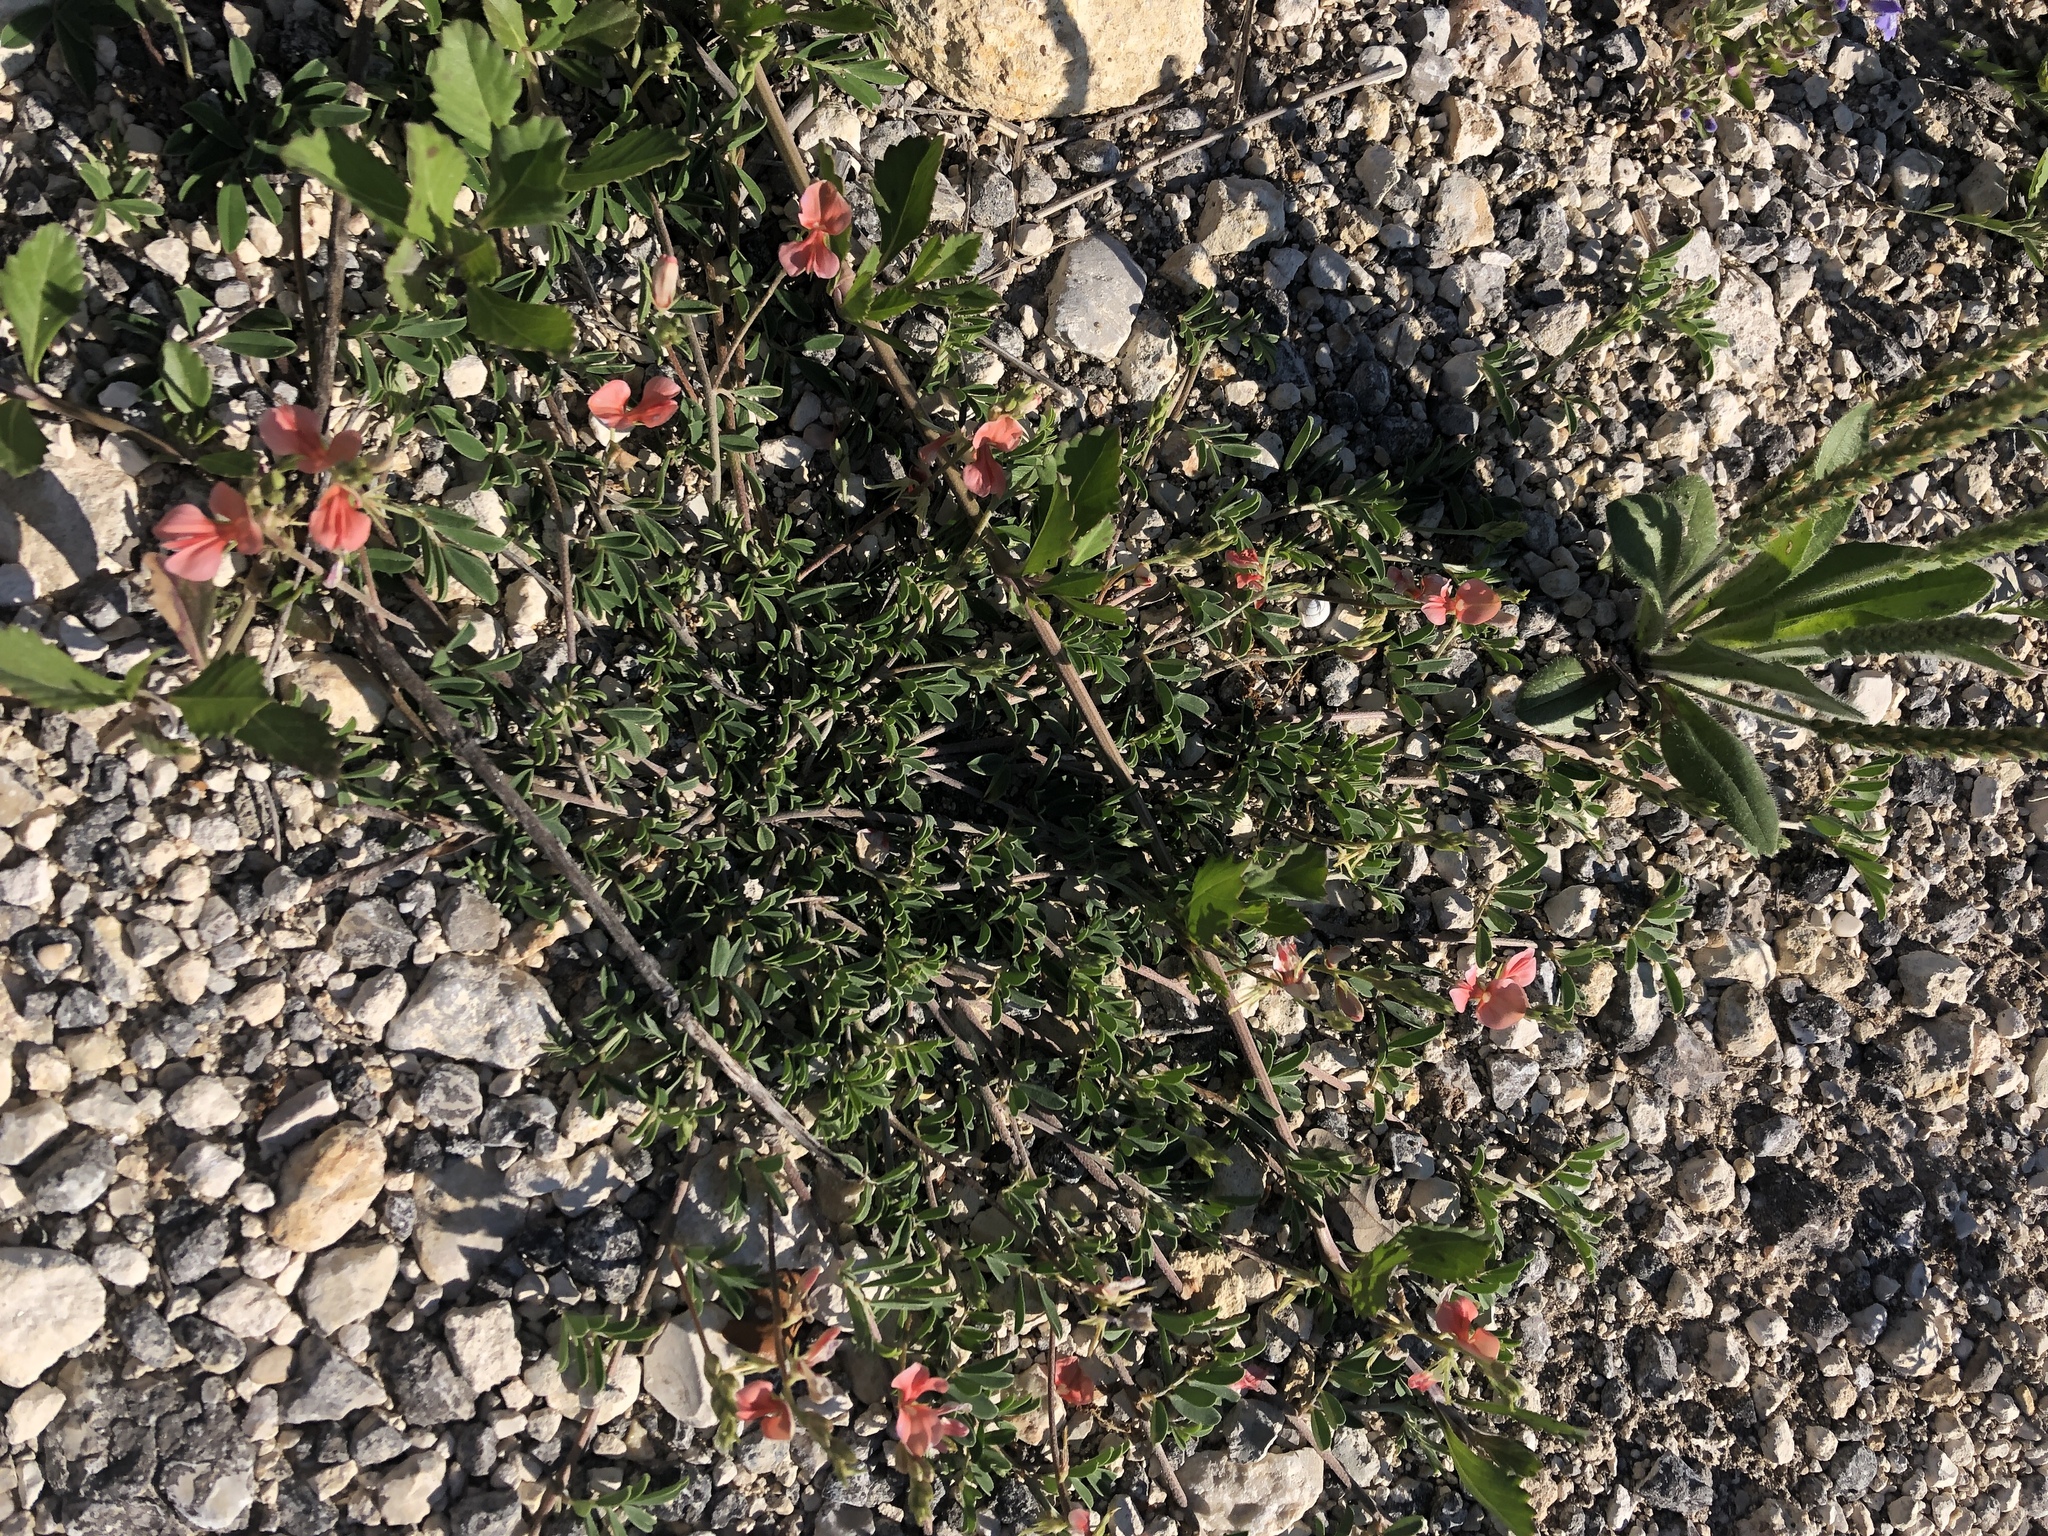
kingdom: Plantae
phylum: Tracheophyta
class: Magnoliopsida
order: Fabales
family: Fabaceae
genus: Indigofera
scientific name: Indigofera miniata
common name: Coast indigo
